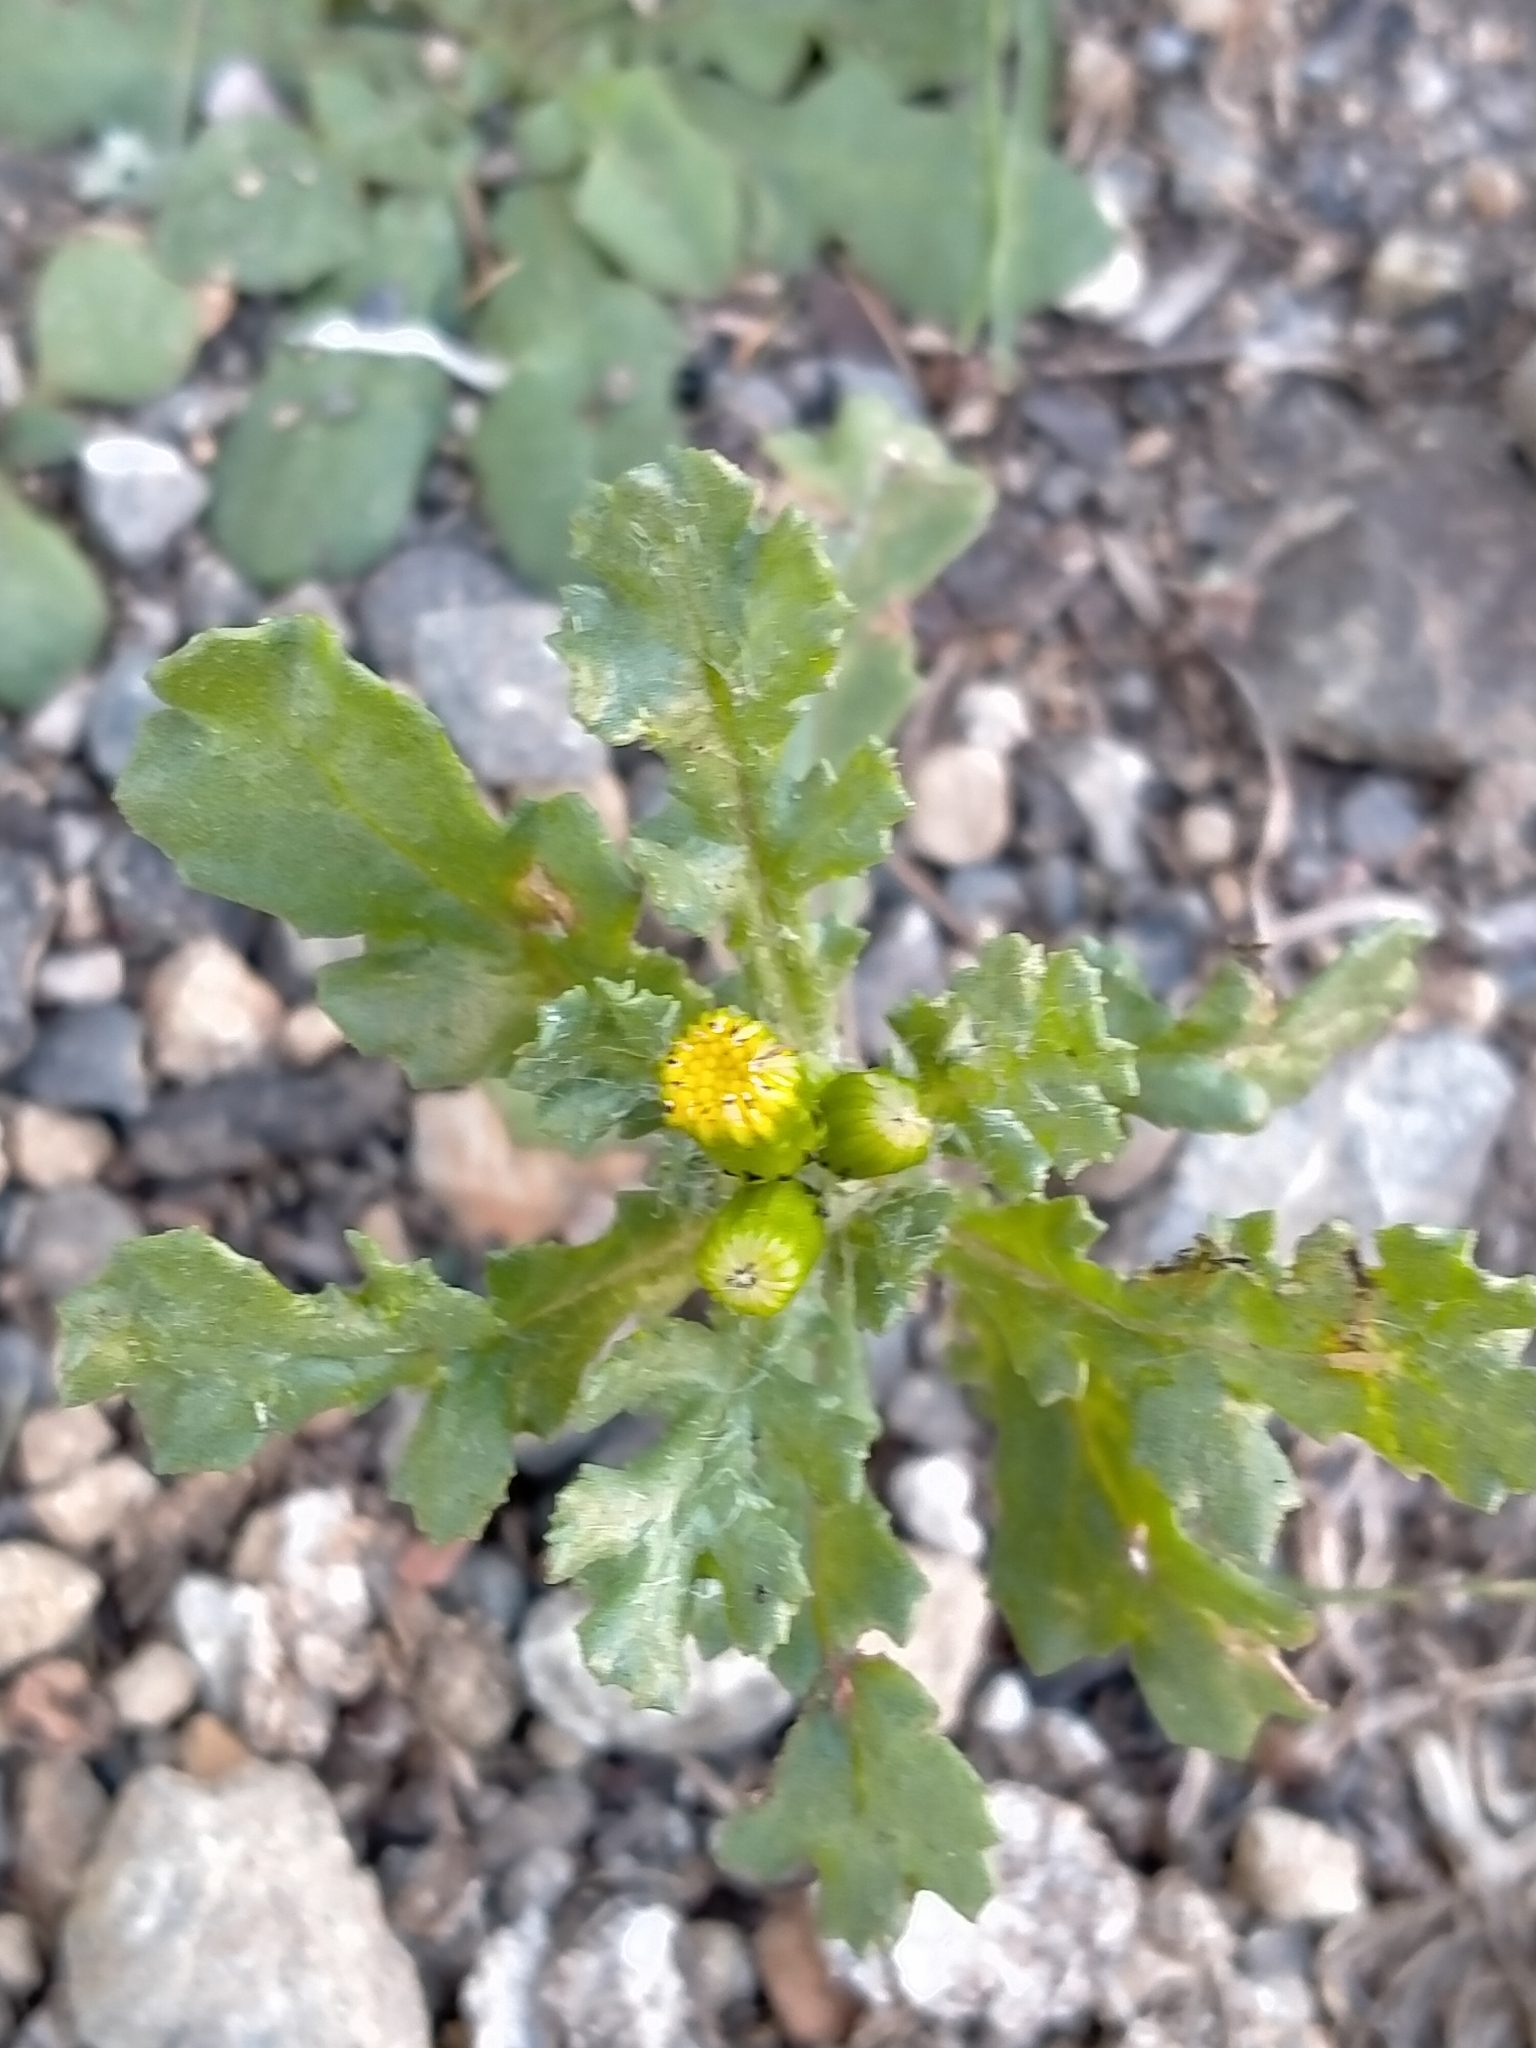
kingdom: Plantae
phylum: Tracheophyta
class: Magnoliopsida
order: Asterales
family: Asteraceae
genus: Senecio
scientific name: Senecio vulgaris
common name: Old-man-in-the-spring
